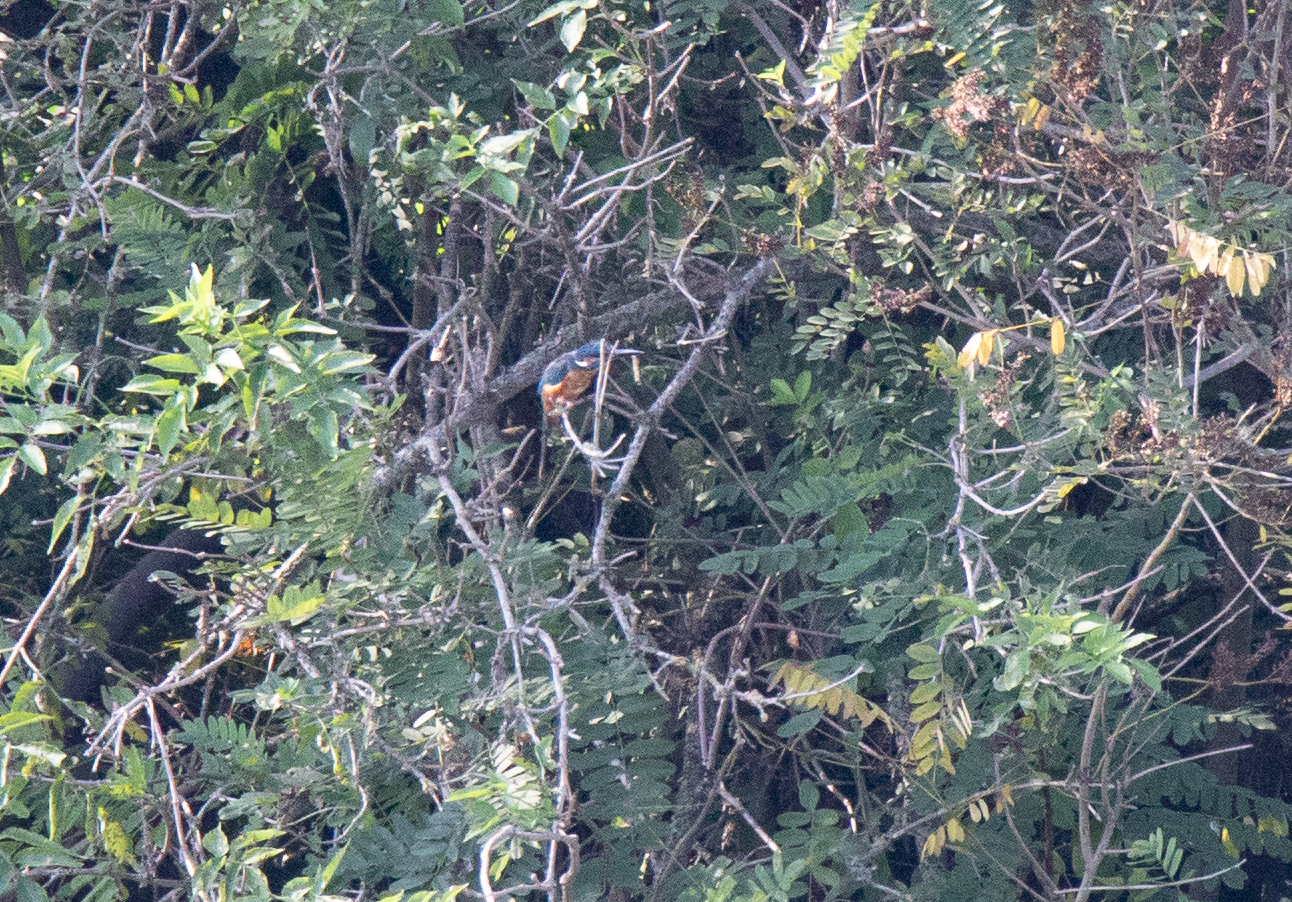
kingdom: Animalia
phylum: Chordata
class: Aves
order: Coraciiformes
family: Alcedinidae
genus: Alcedo
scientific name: Alcedo atthis
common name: Common kingfisher
